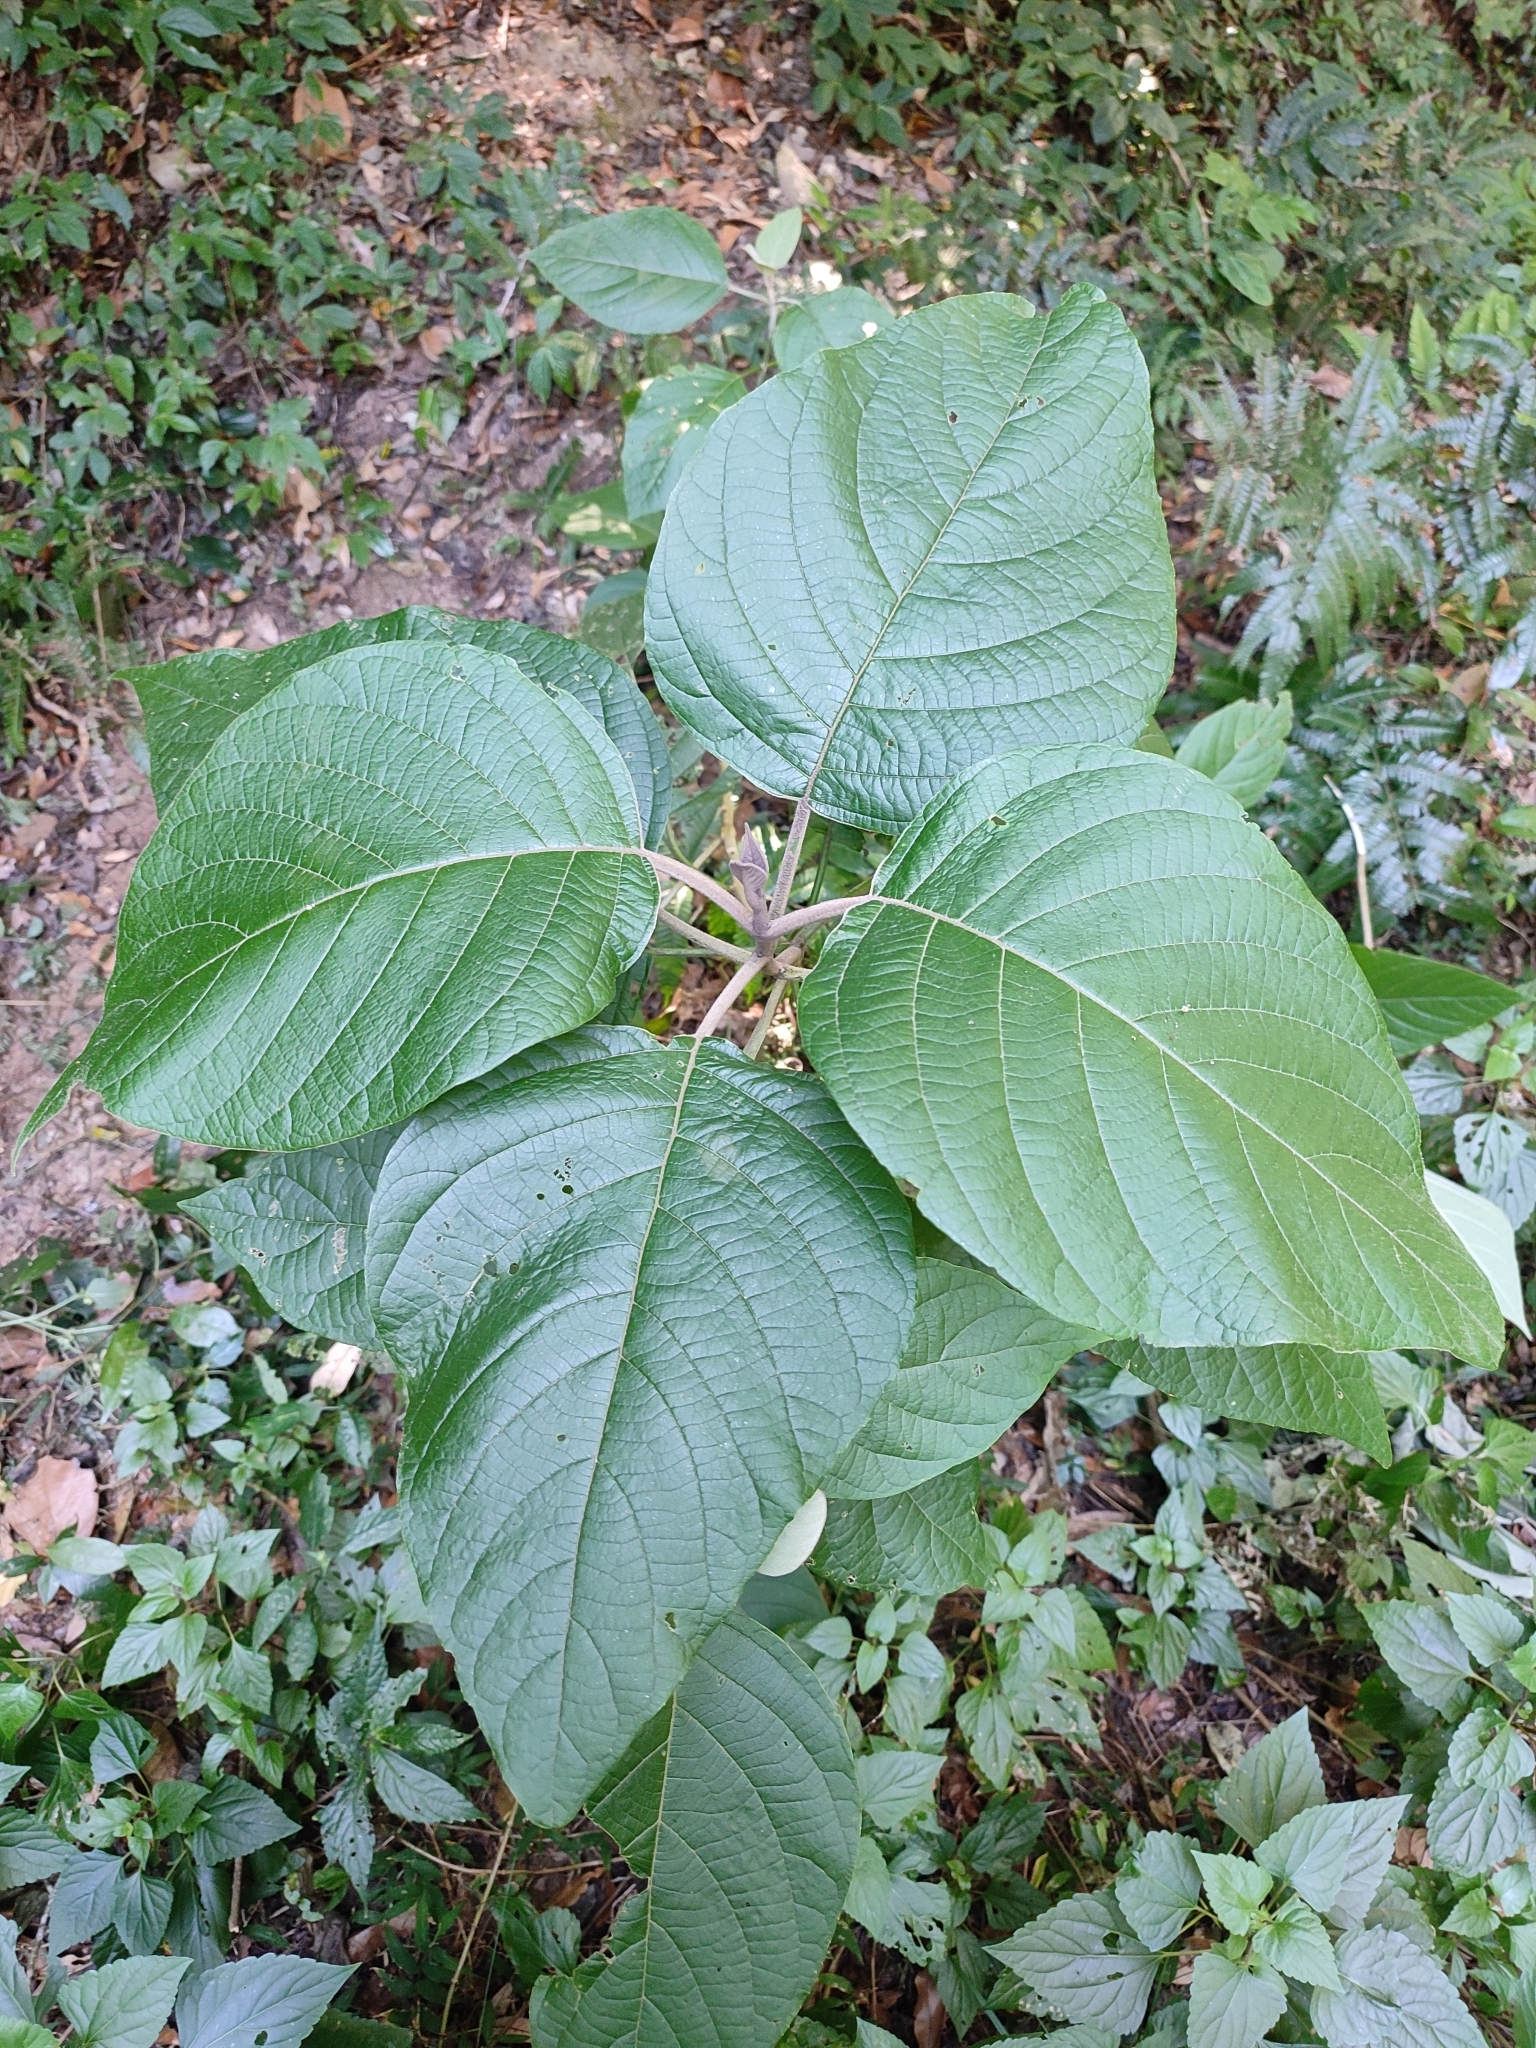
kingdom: Plantae
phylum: Tracheophyta
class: Magnoliopsida
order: Lamiales
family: Lamiaceae
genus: Callicarpa
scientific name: Callicarpa tomentosa
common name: Great woolly malayan-lilac
